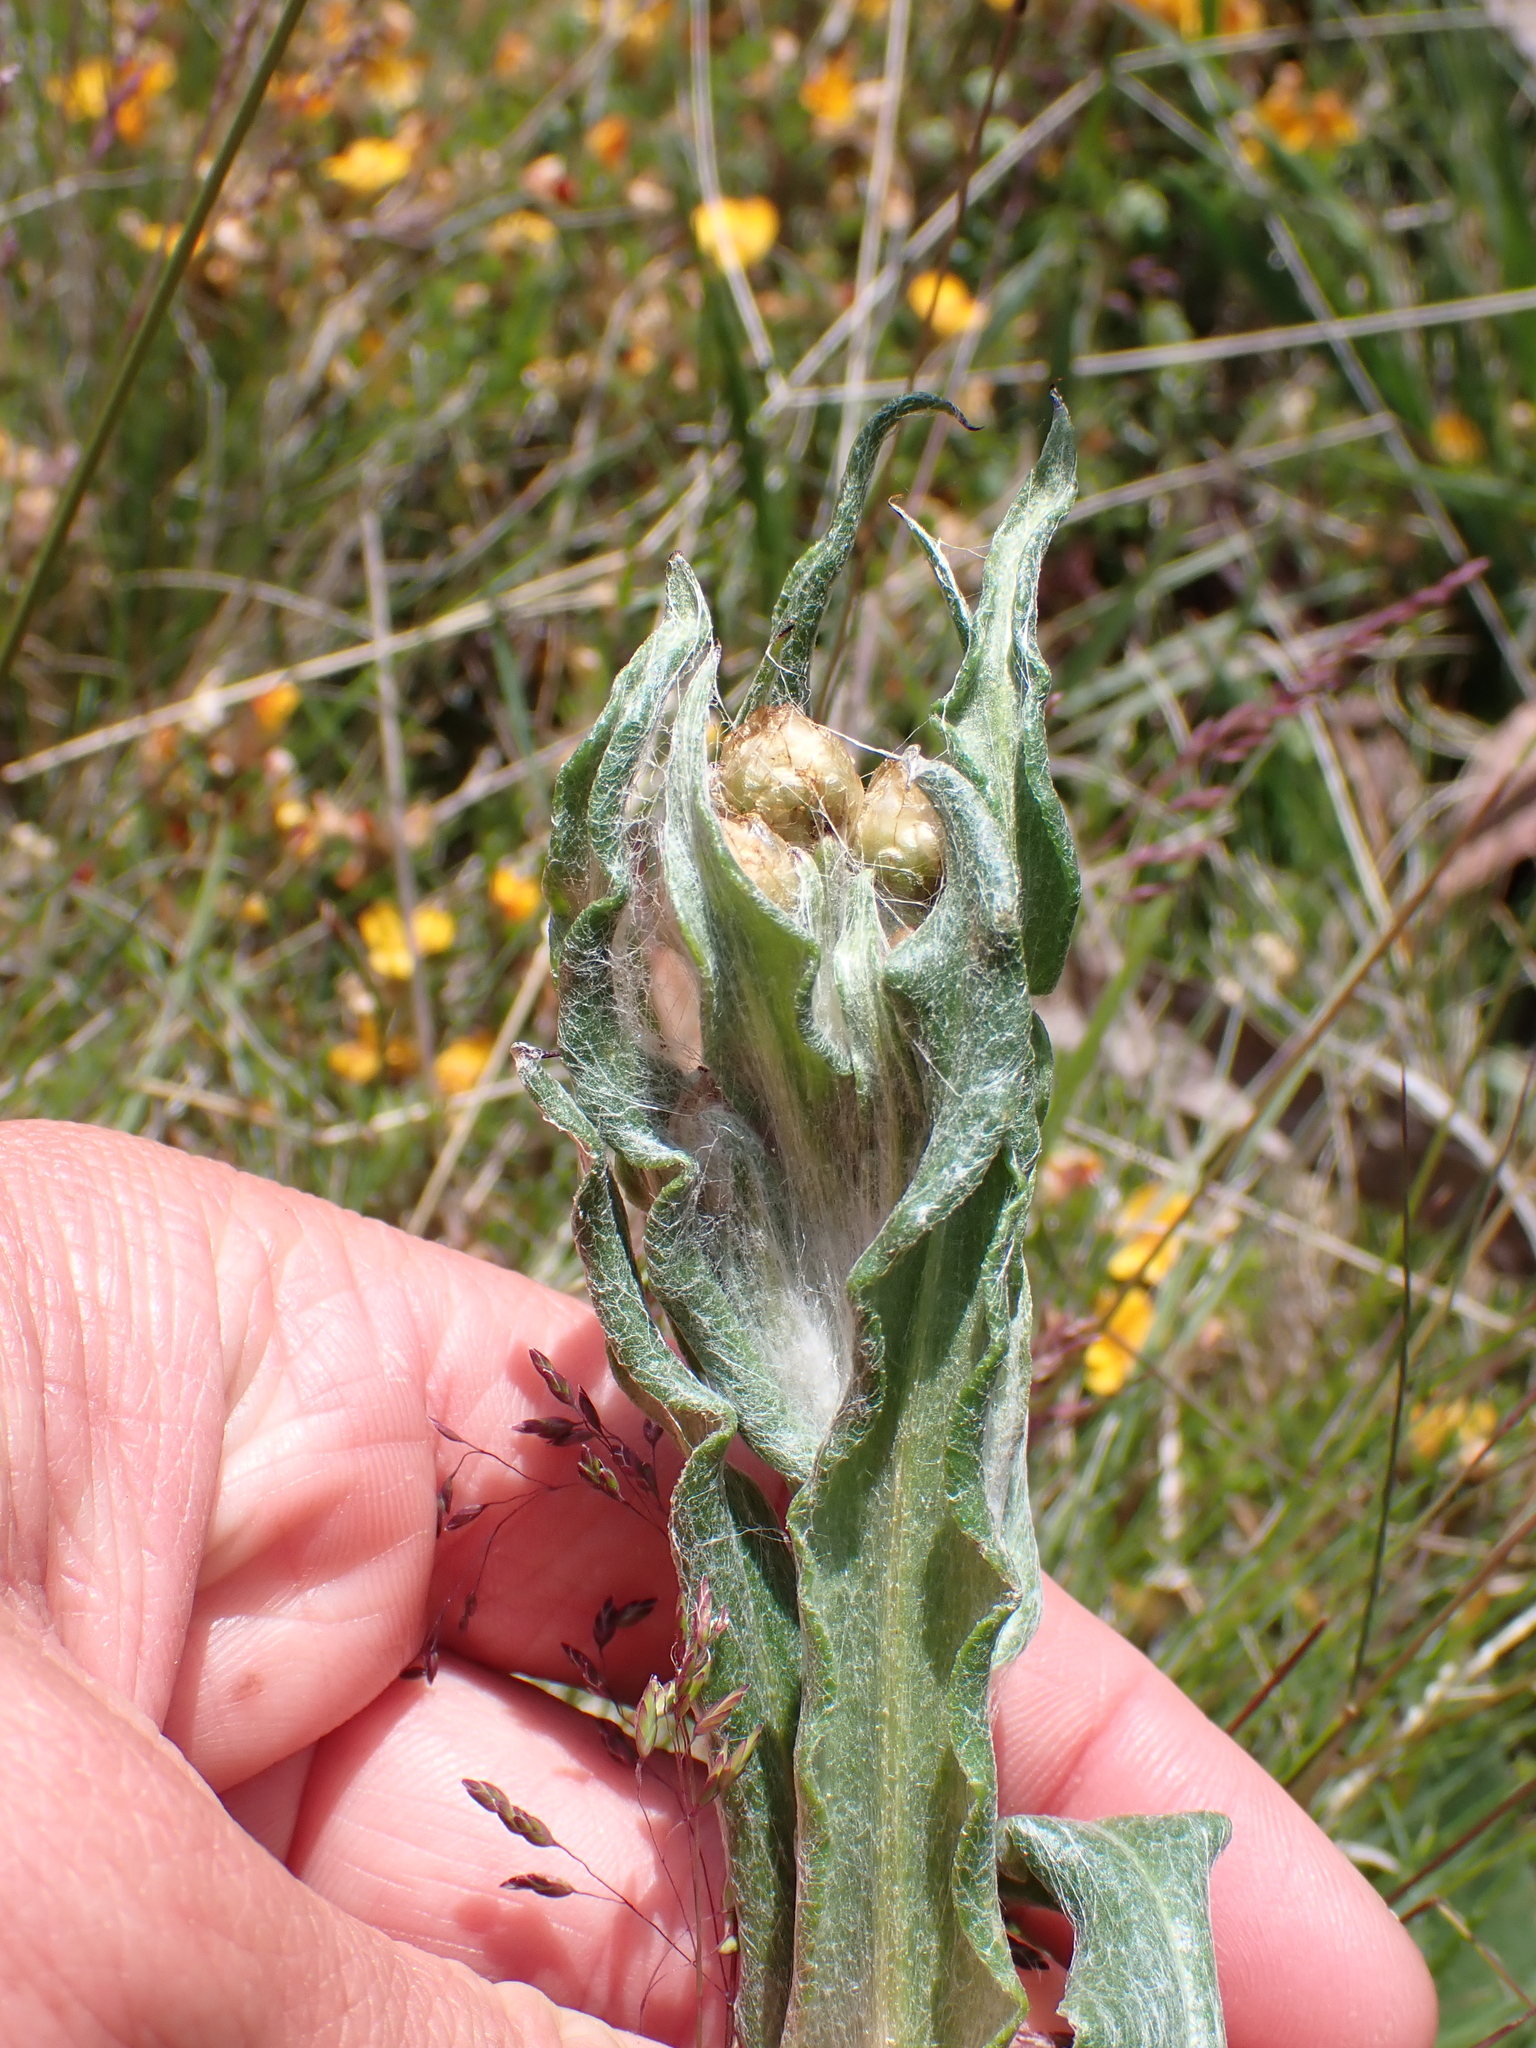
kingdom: Plantae
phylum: Tracheophyta
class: Magnoliopsida
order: Asterales
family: Asteraceae
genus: Podolepis
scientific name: Podolepis laciniata
